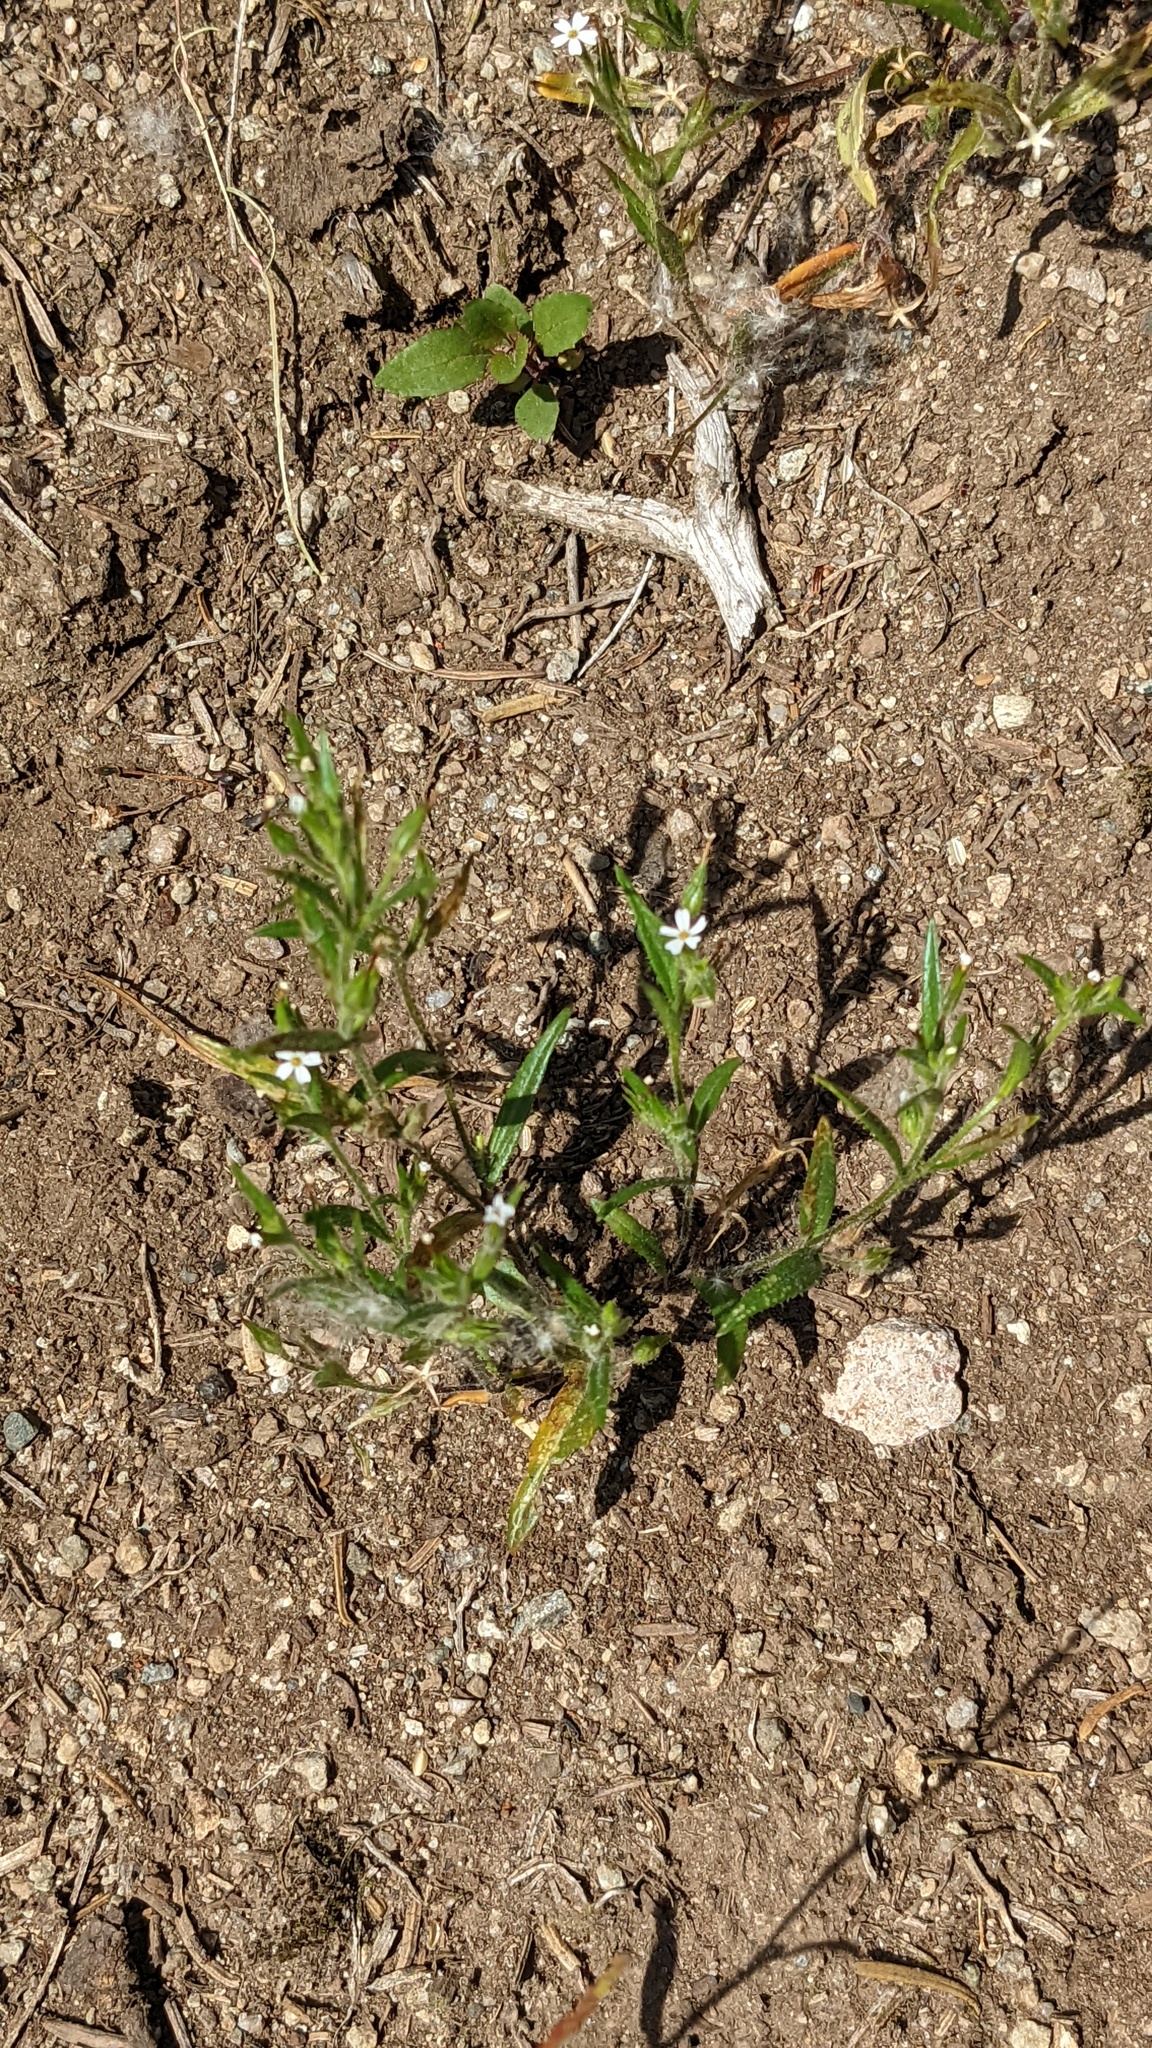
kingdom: Plantae
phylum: Tracheophyta
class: Magnoliopsida
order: Ericales
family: Polemoniaceae
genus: Phlox
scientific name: Phlox gracilis
